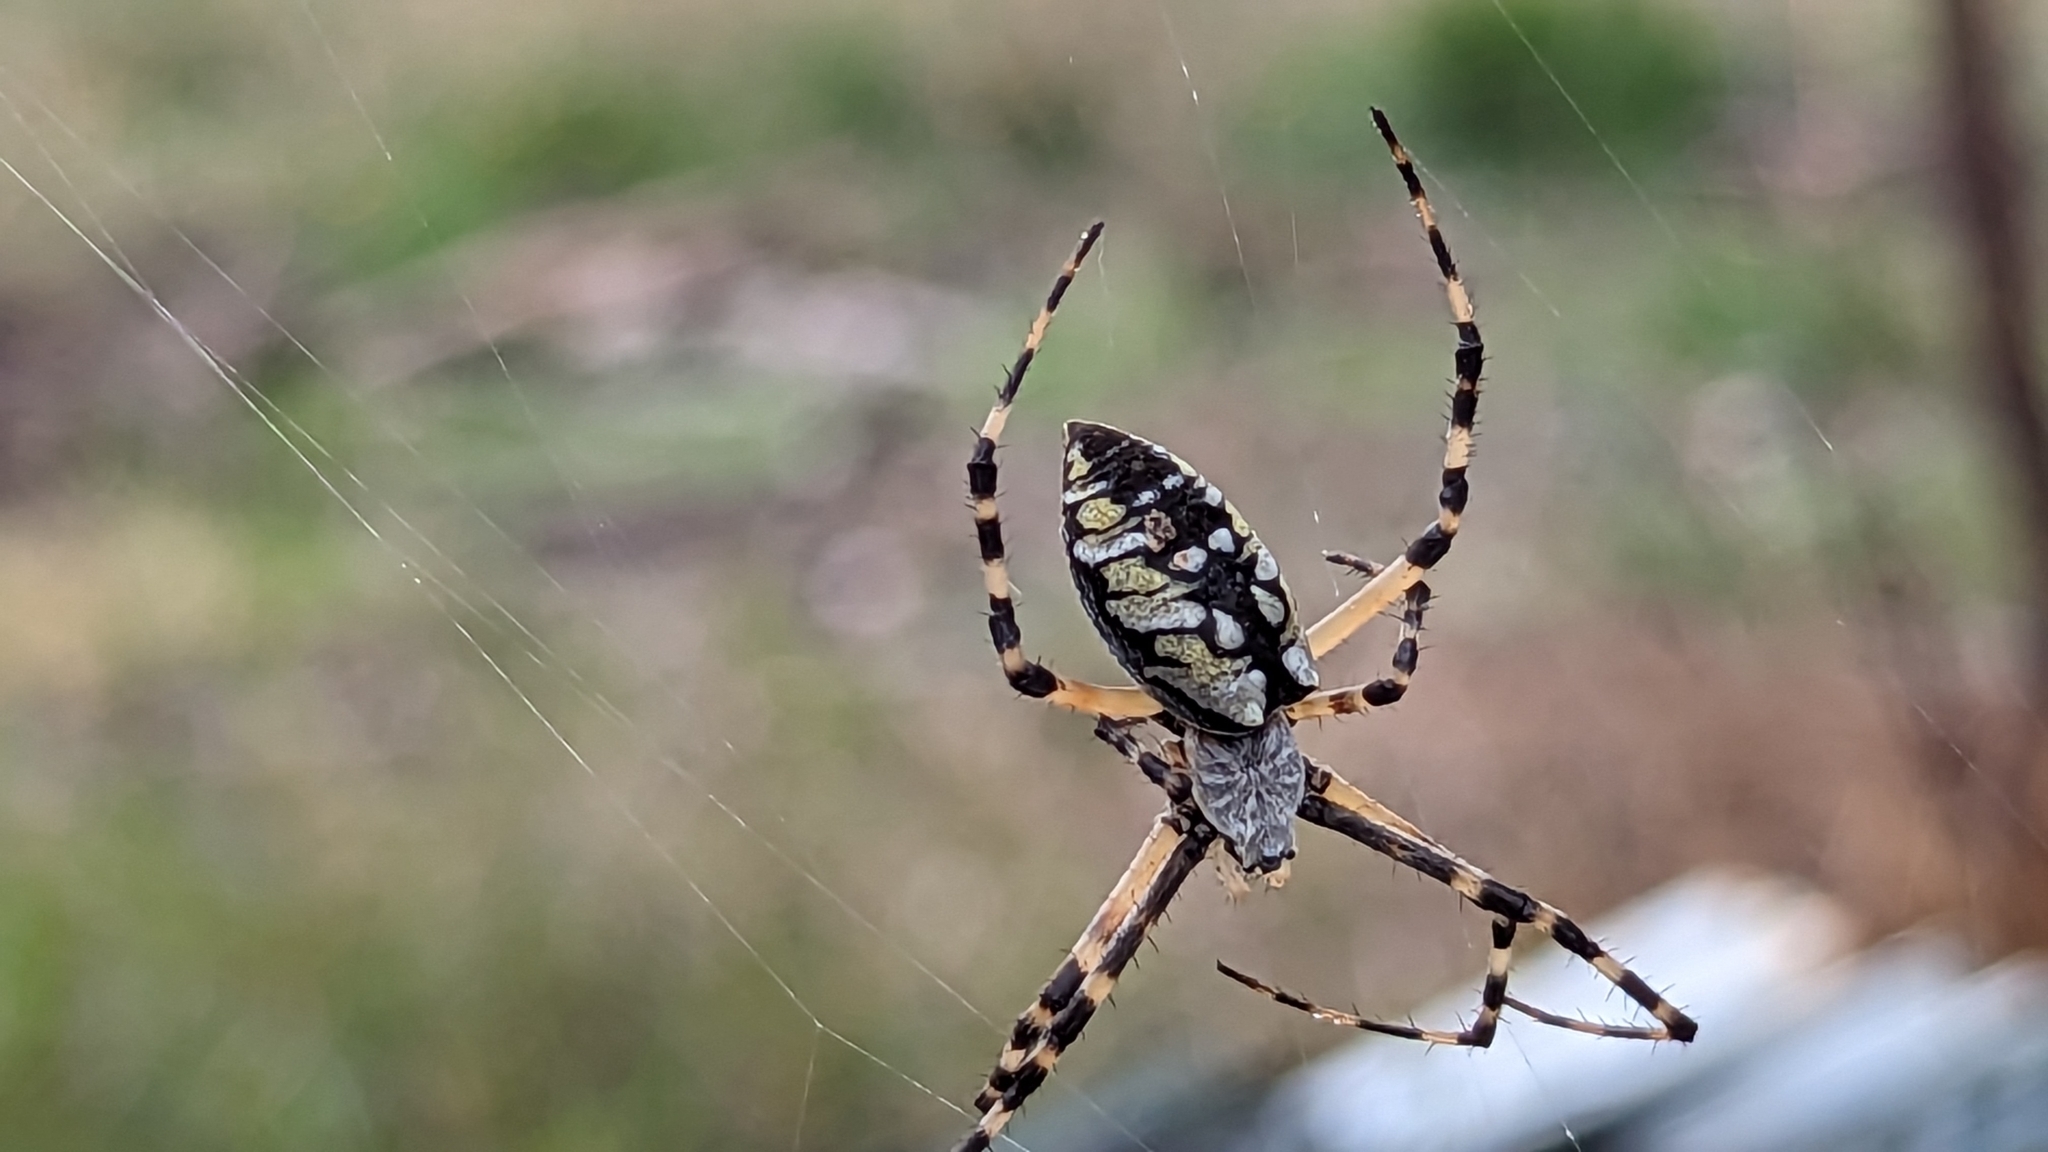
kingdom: Animalia
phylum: Arthropoda
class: Arachnida
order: Araneae
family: Araneidae
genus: Argiope
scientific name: Argiope aurantia
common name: Orb weavers
